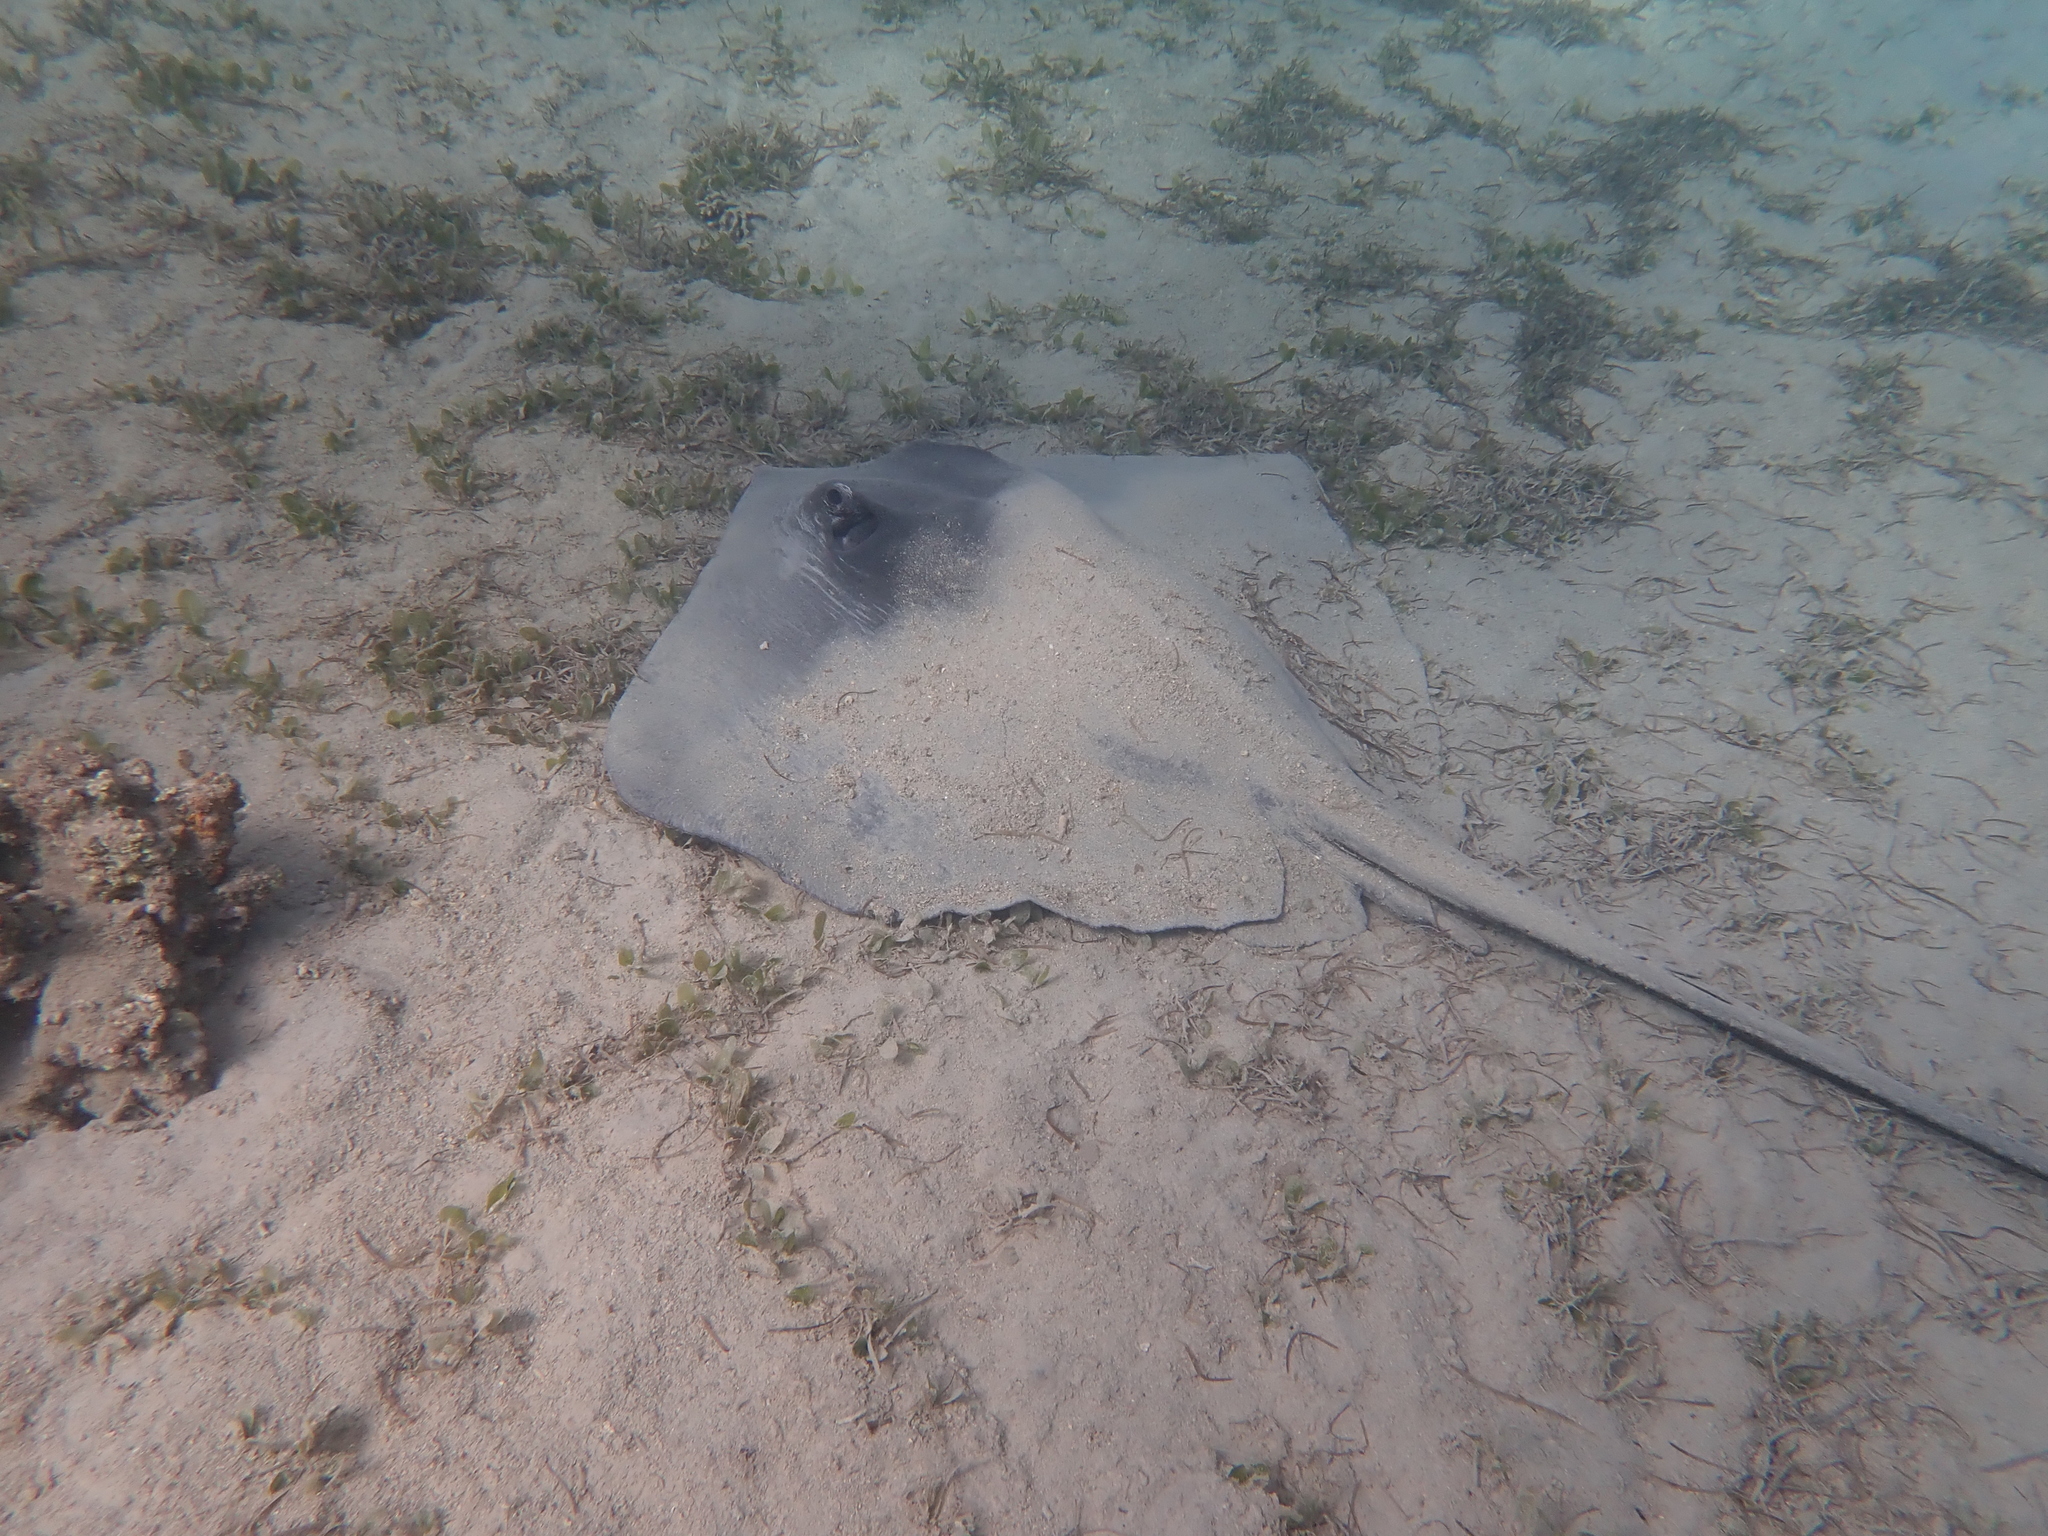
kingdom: Animalia
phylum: Chordata
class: Elasmobranchii
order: Myliobatiformes
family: Dasyatidae
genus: Bathytoshia
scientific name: Bathytoshia lata
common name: Brown stingray
